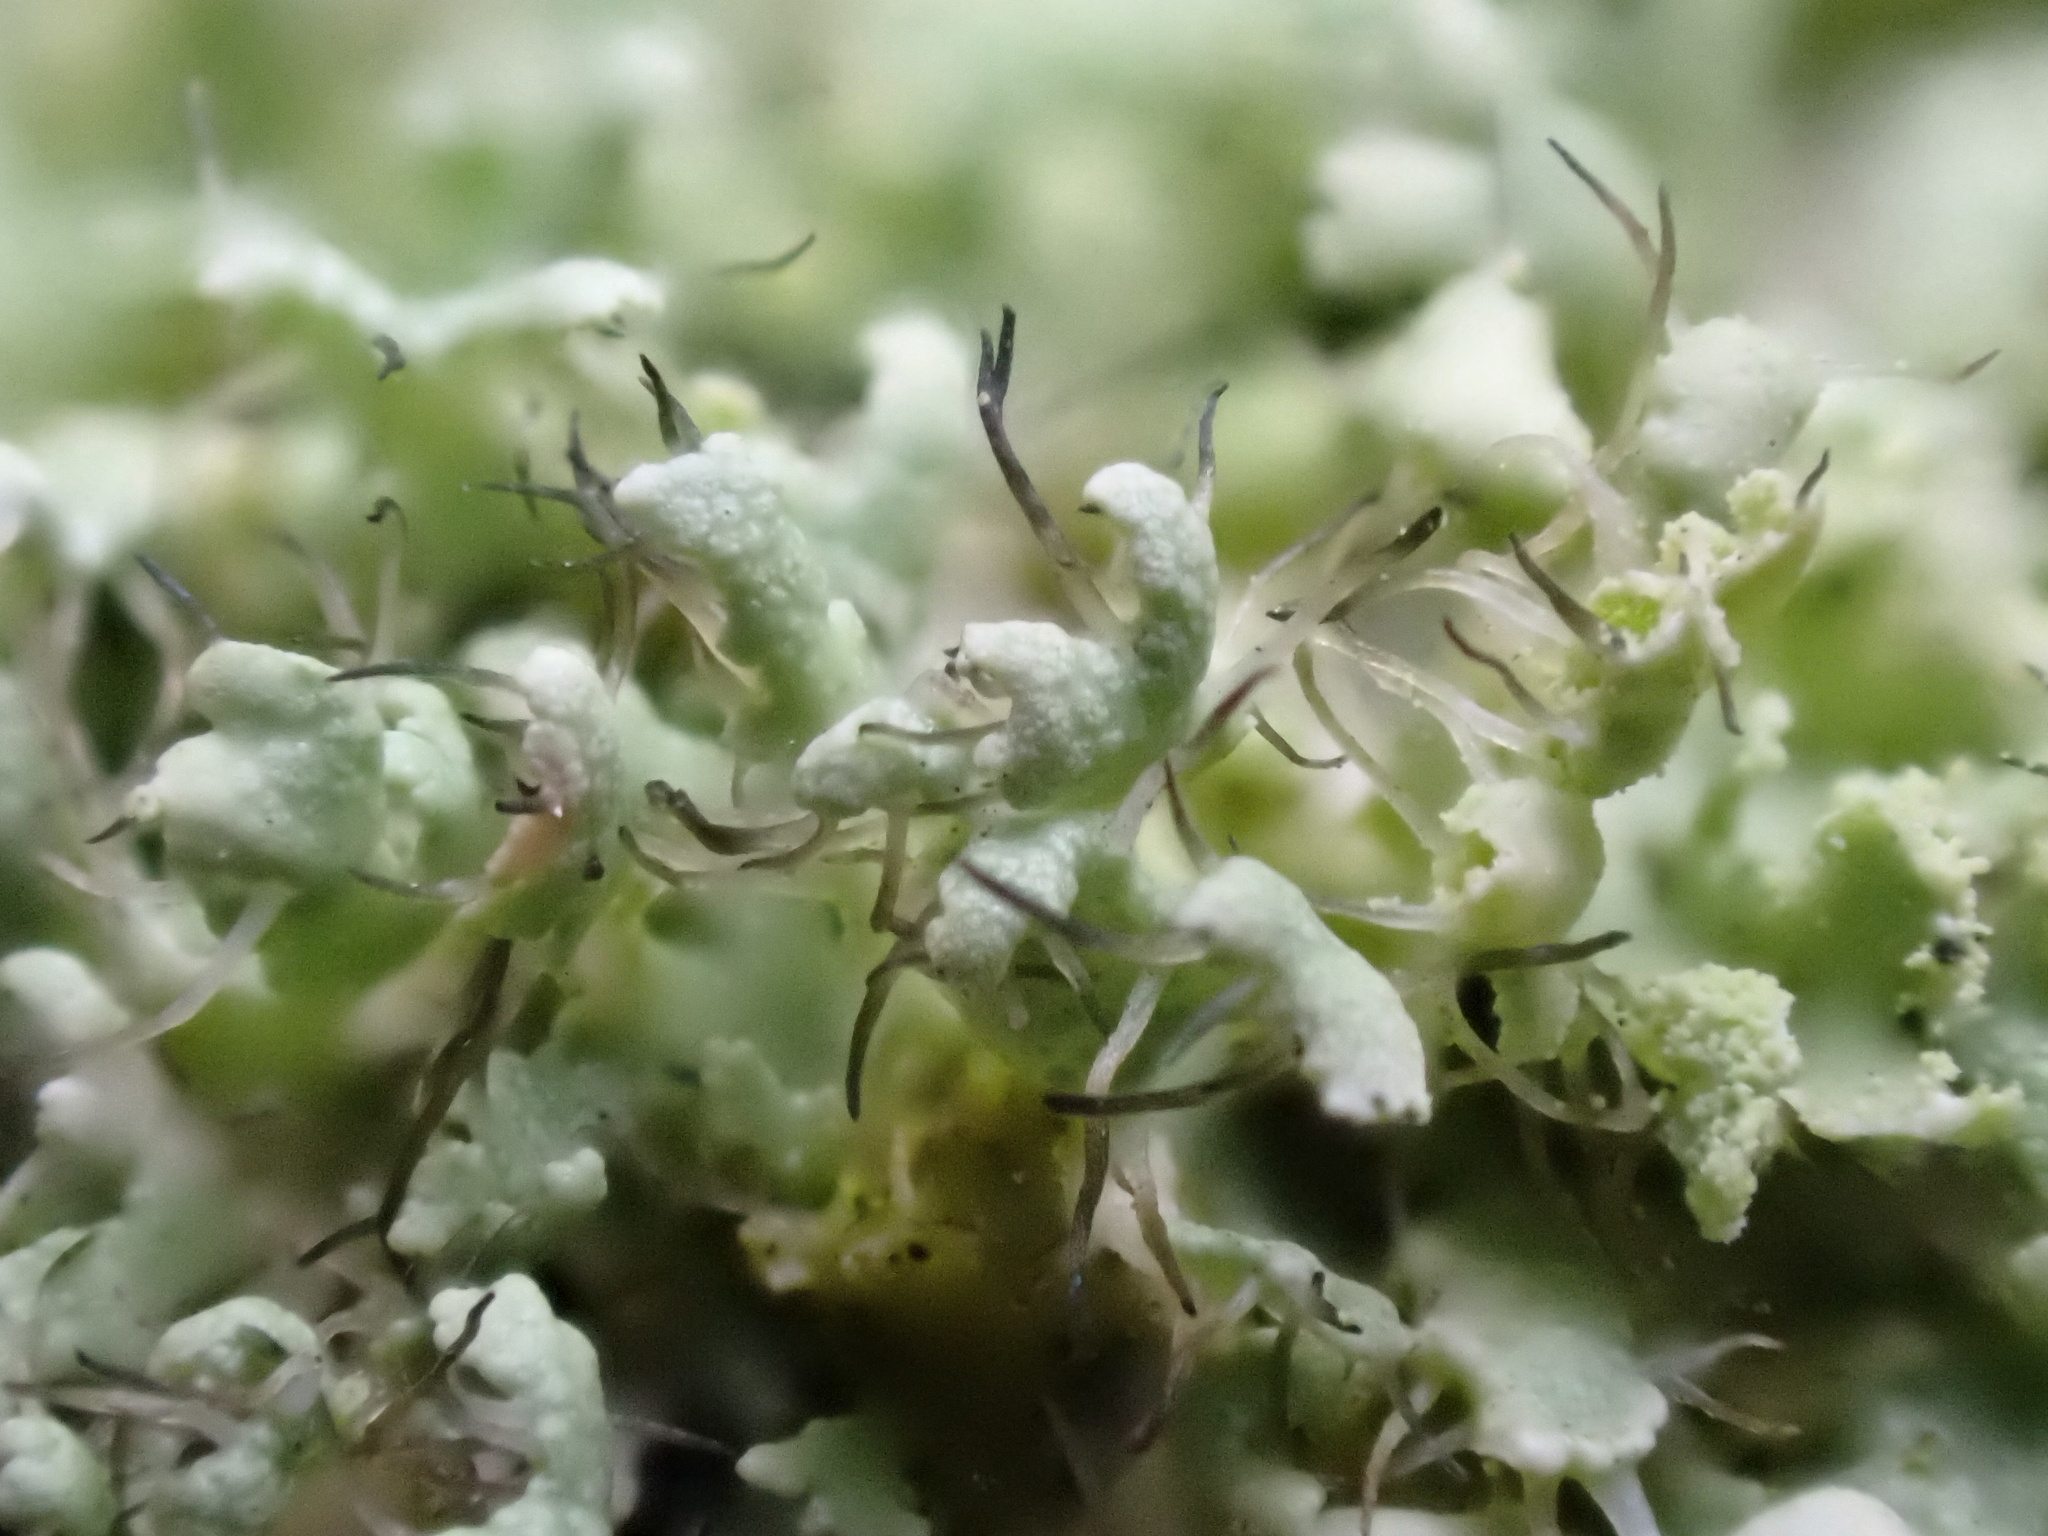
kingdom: Fungi
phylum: Ascomycota
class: Lecanoromycetes
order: Caliciales
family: Physciaceae
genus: Physcia
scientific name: Physcia adscendens
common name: Hooded rosette lichen
